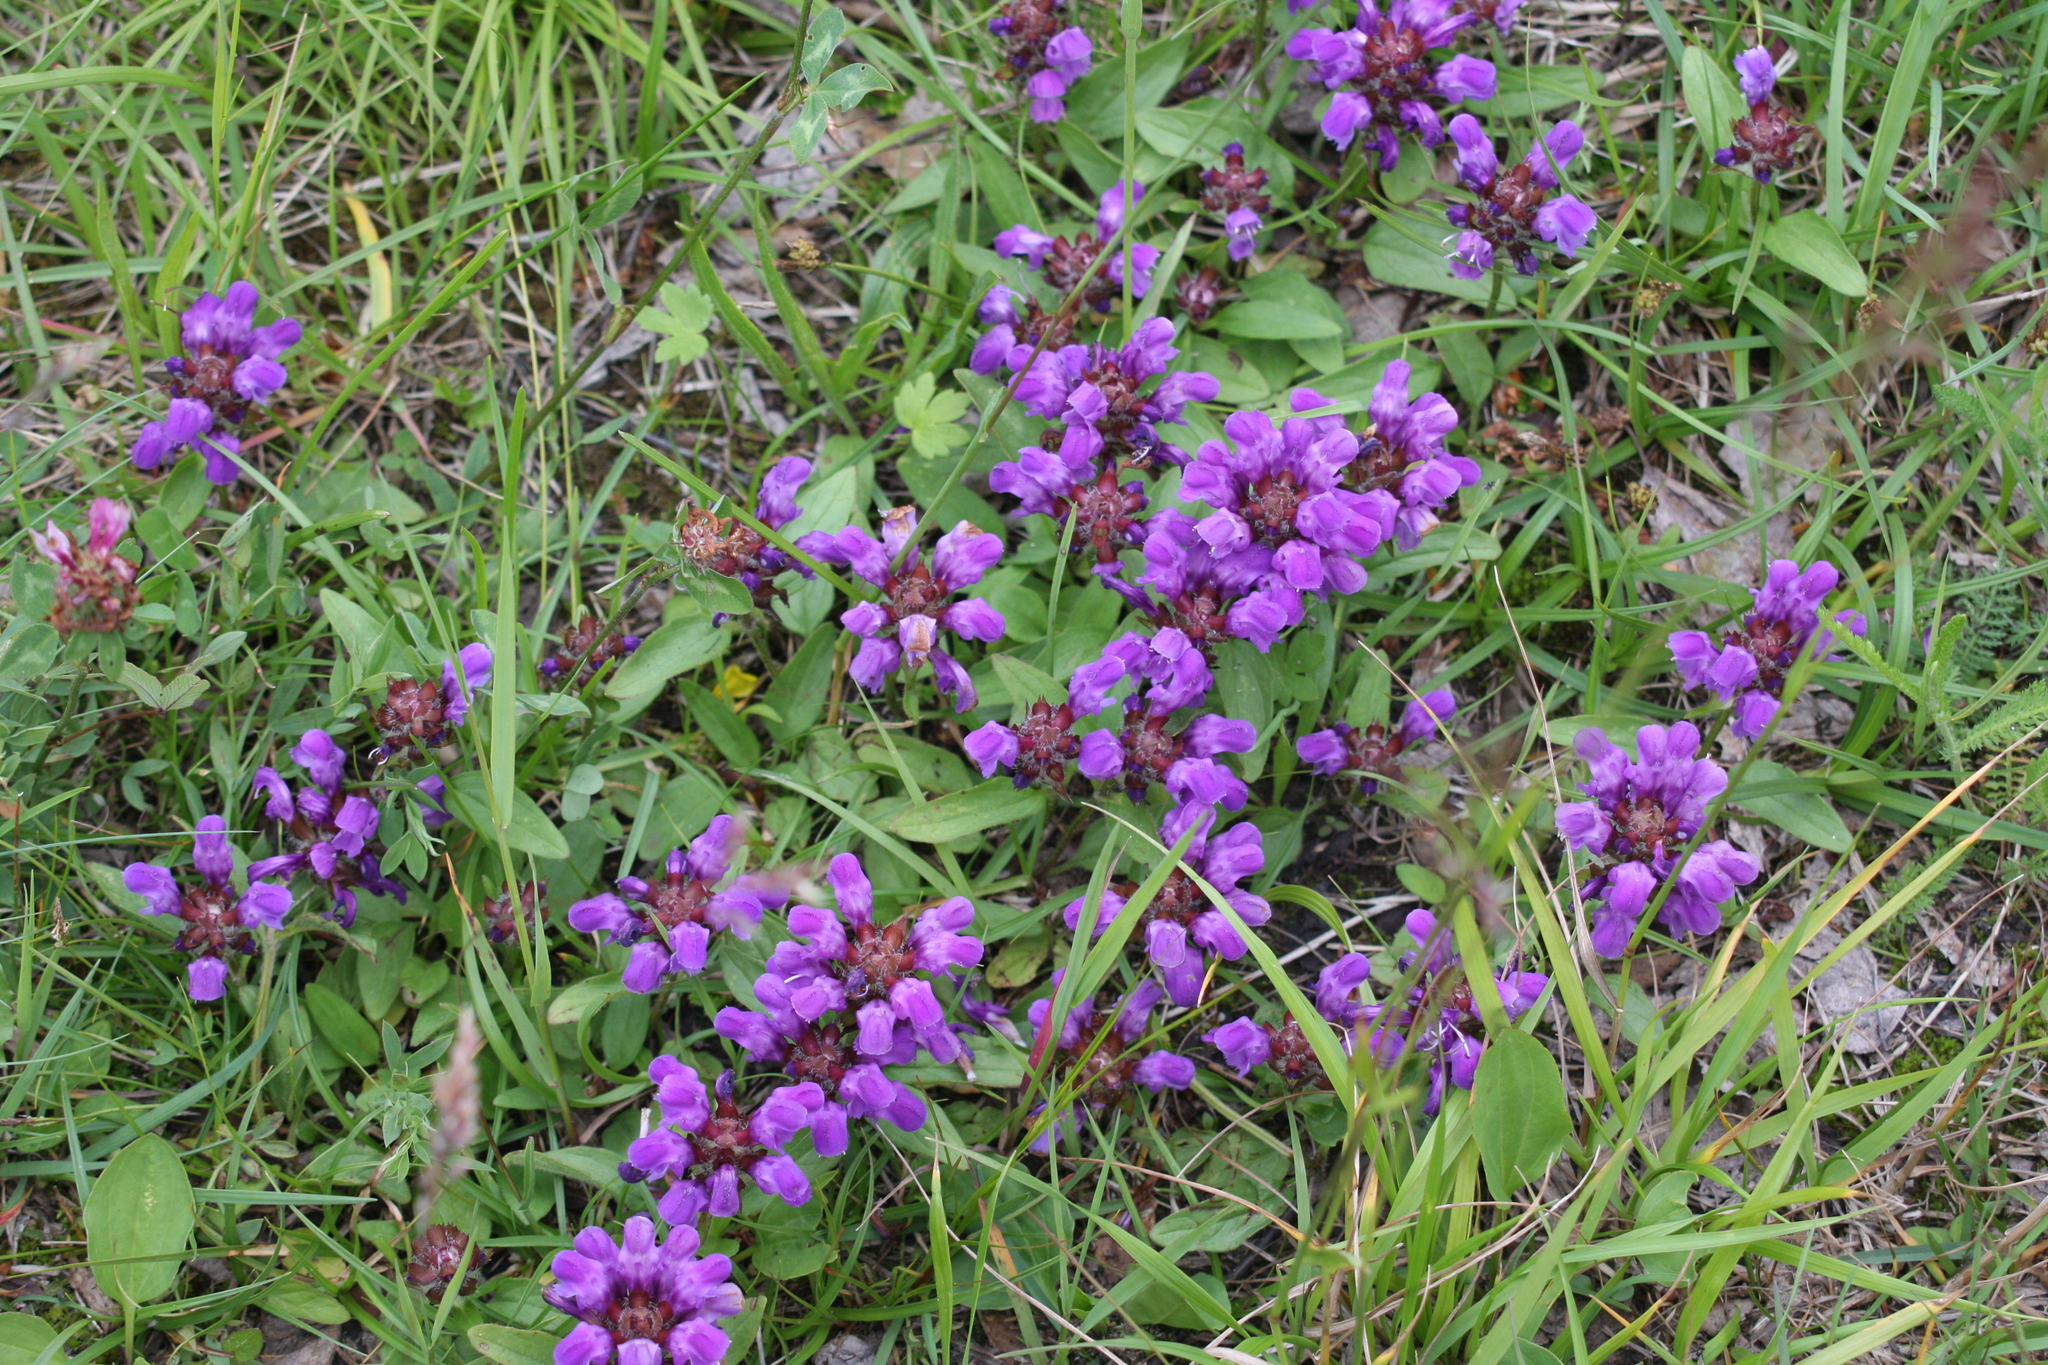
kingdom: Plantae
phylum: Tracheophyta
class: Magnoliopsida
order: Lamiales
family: Lamiaceae
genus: Prunella
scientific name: Prunella grandiflora
